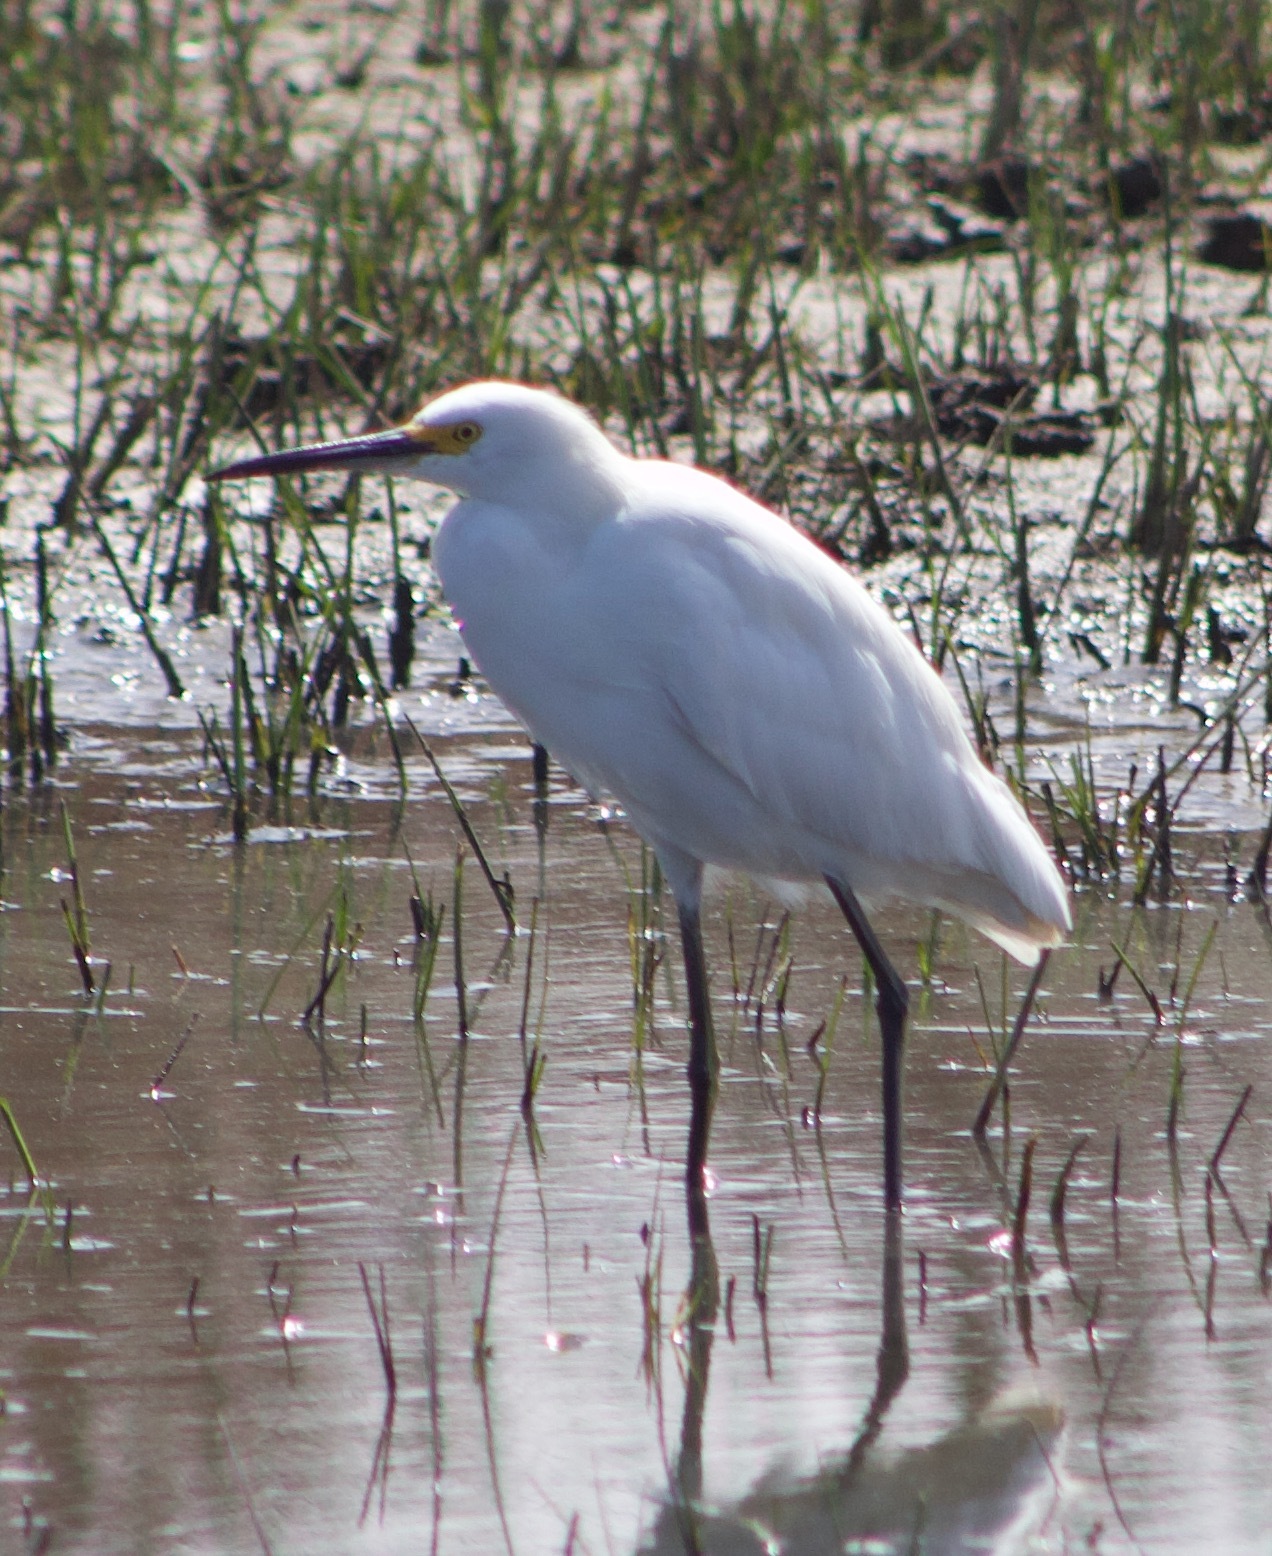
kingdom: Animalia
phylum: Chordata
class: Aves
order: Pelecaniformes
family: Ardeidae
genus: Egretta
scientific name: Egretta thula
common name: Snowy egret
